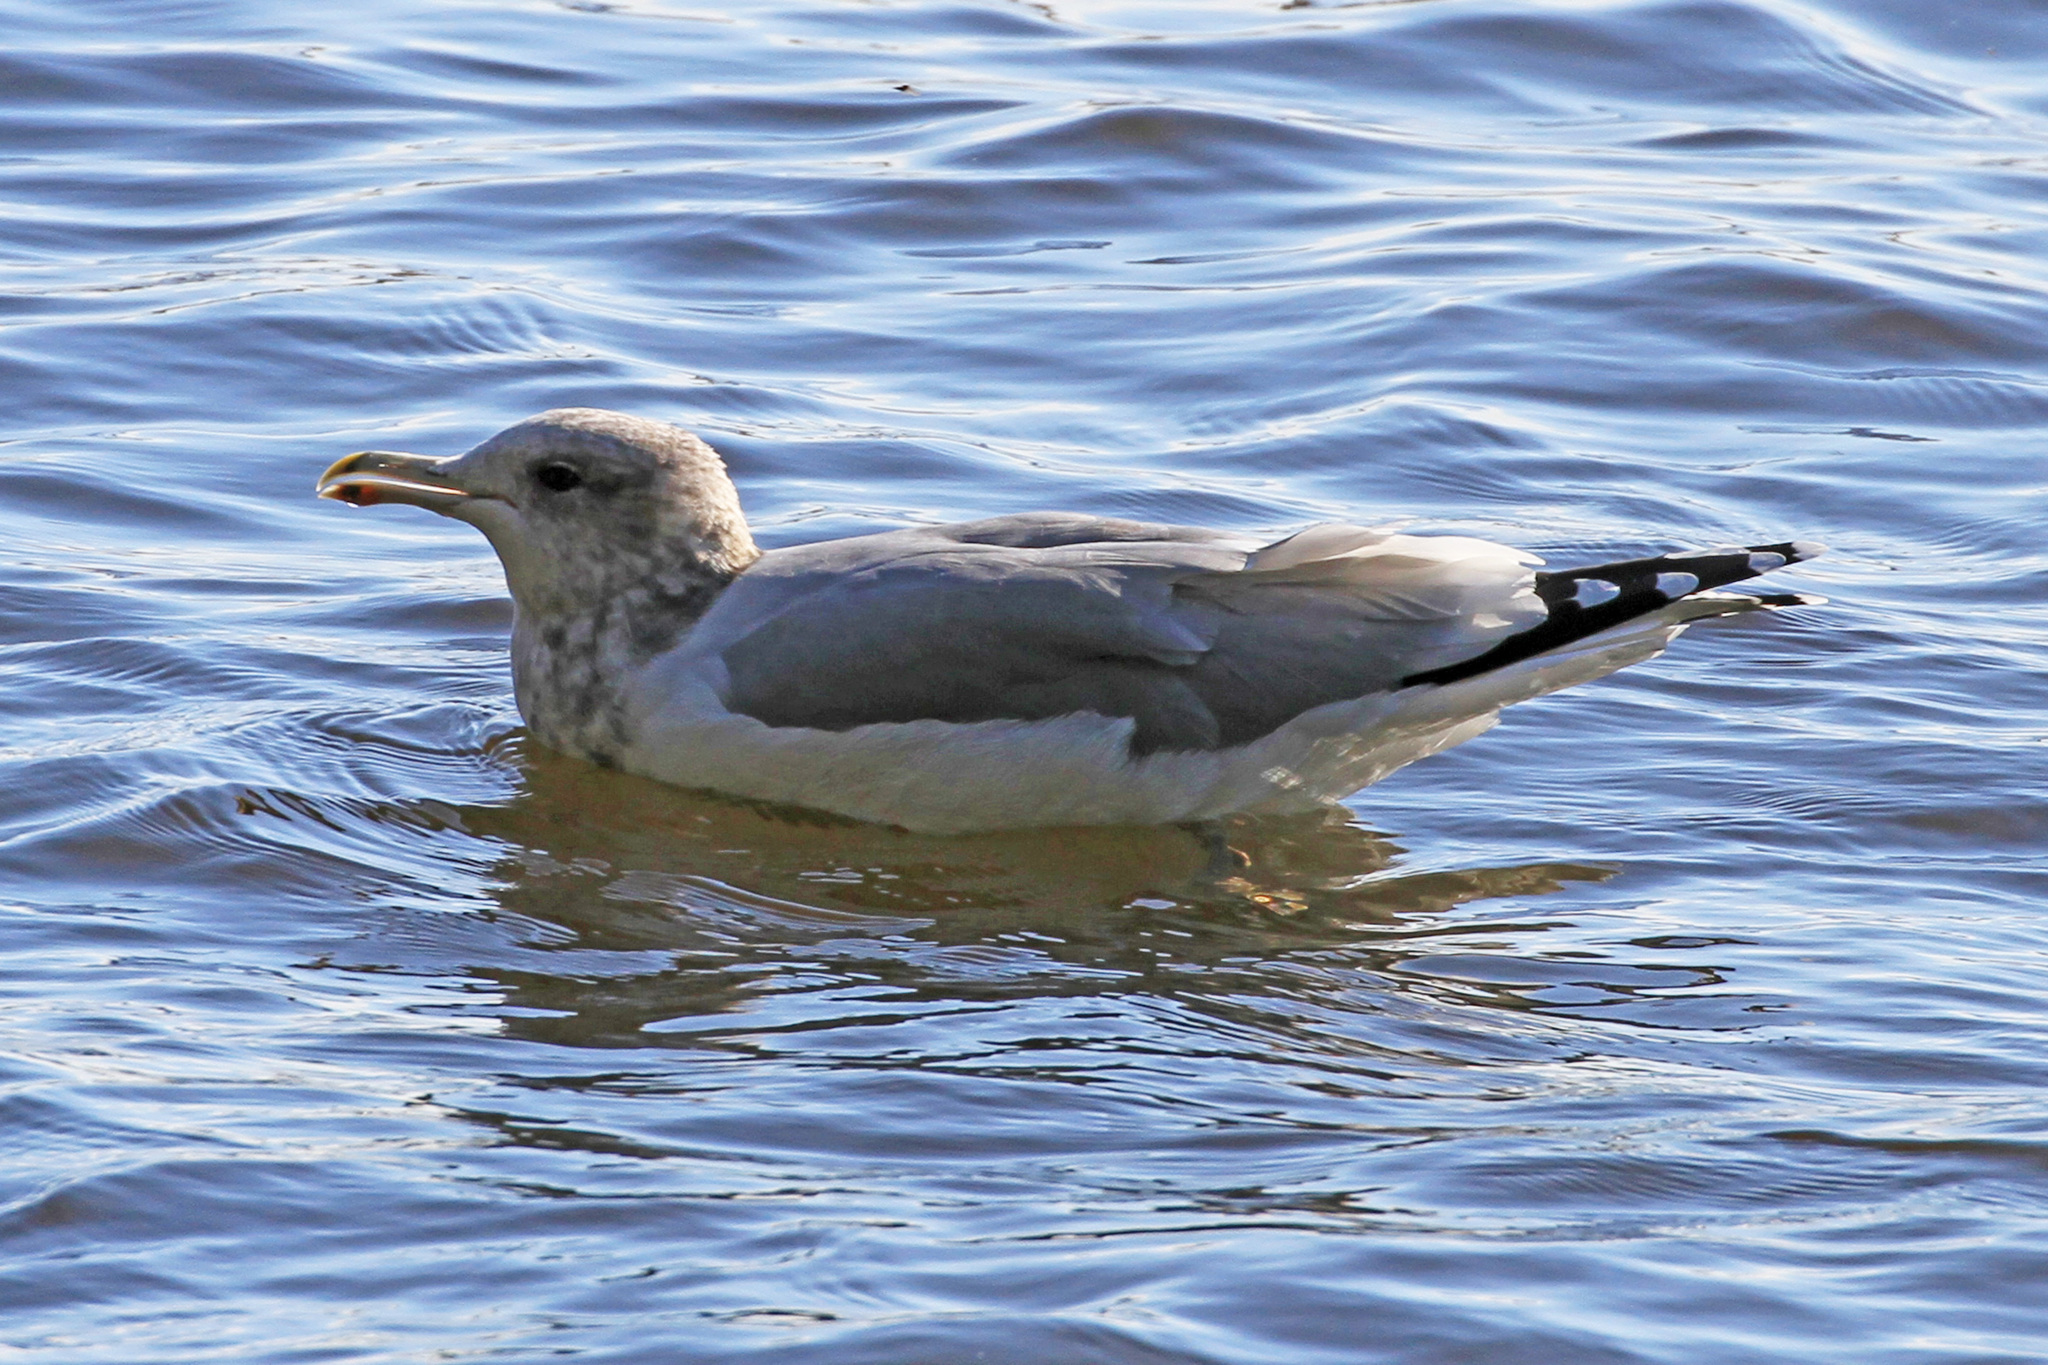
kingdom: Animalia
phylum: Chordata
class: Aves
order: Charadriiformes
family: Laridae
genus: Larus
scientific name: Larus californicus
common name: California gull
